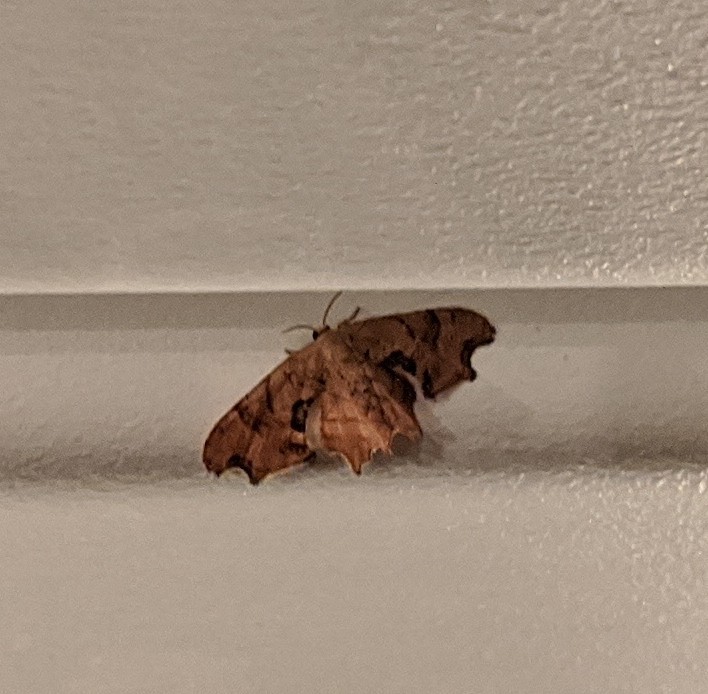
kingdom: Animalia
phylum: Arthropoda
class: Insecta
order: Lepidoptera
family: Uraniidae
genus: Epiplema
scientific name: Epiplema Calledapteryx dryopterata
